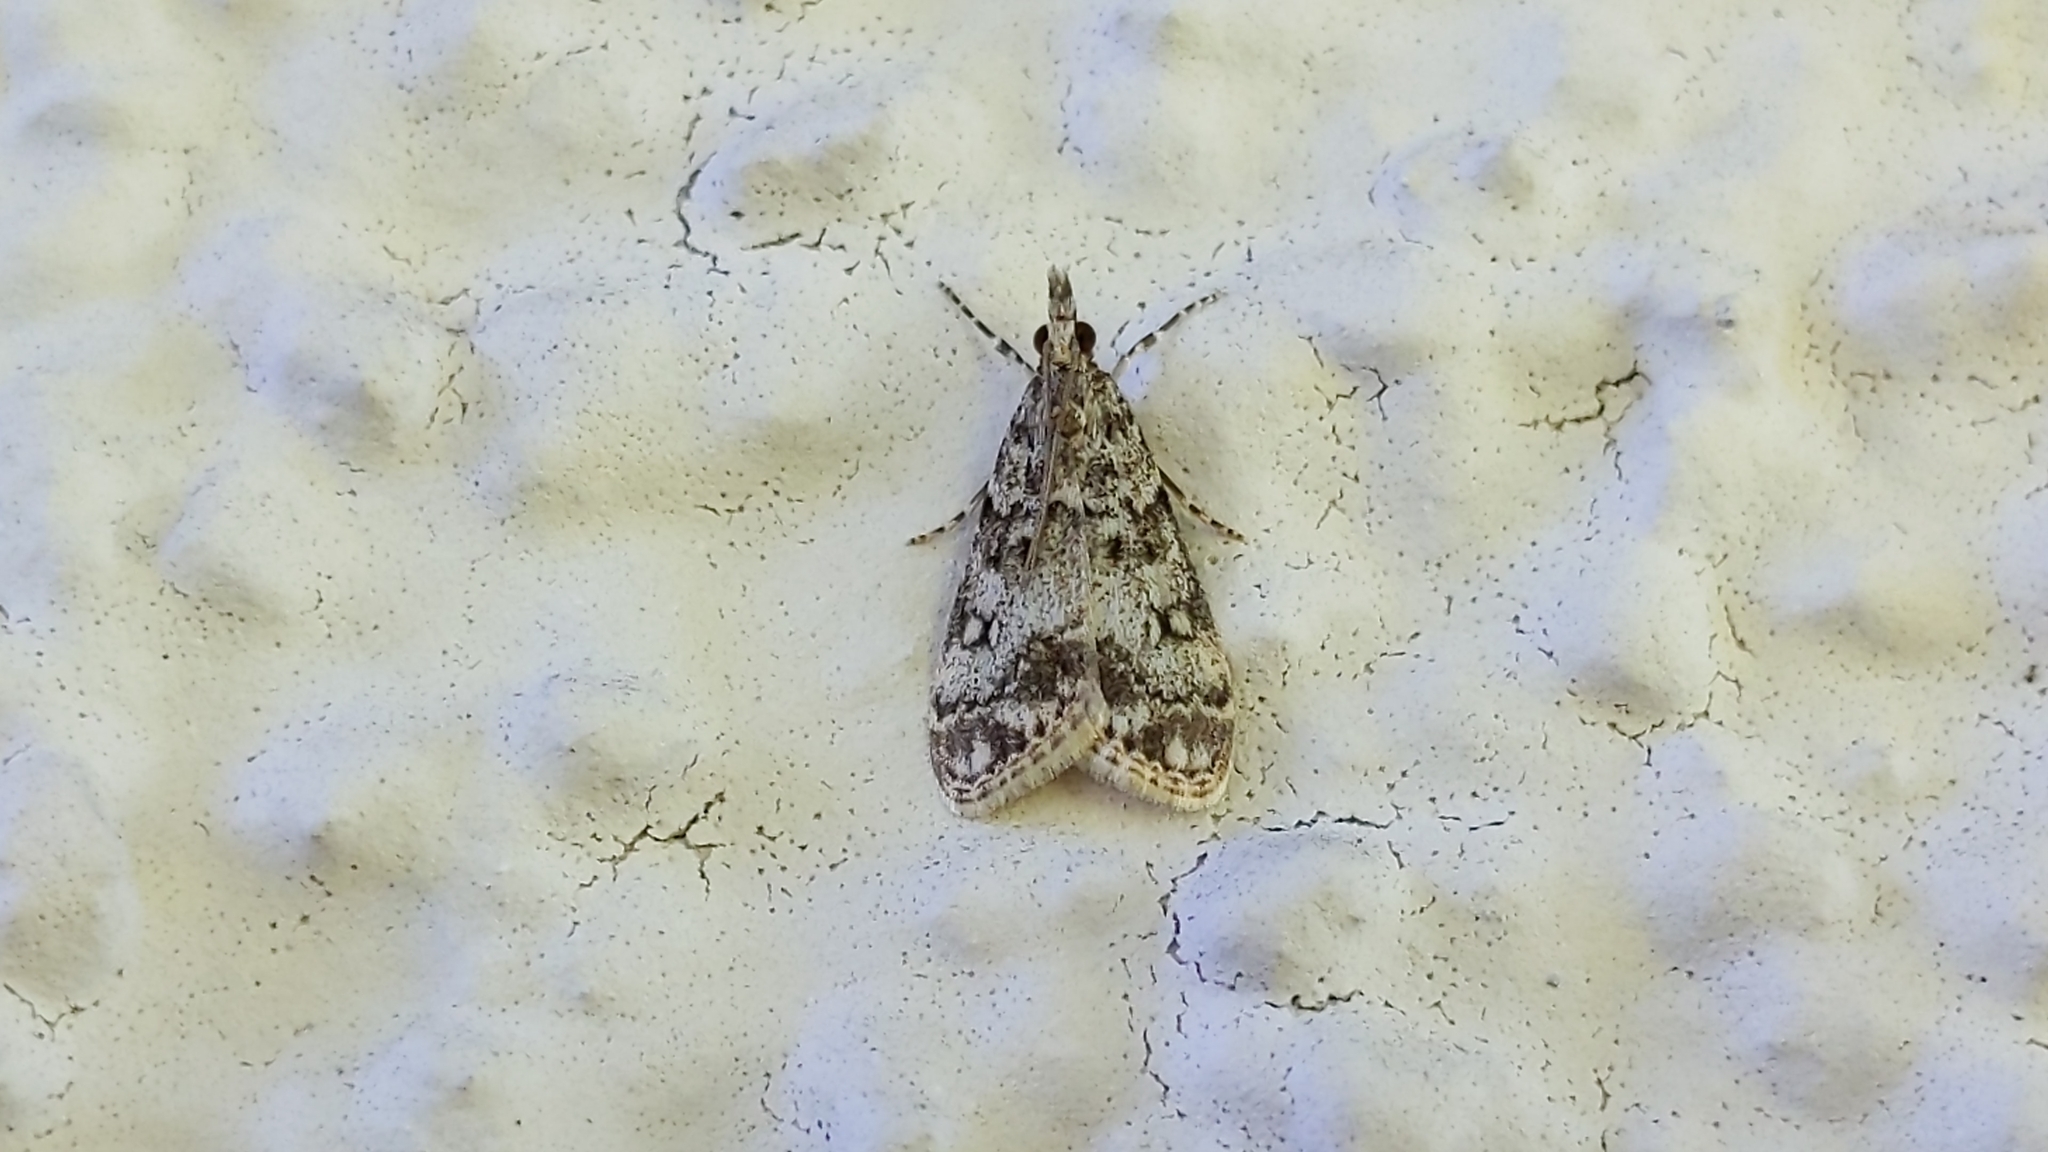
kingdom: Animalia
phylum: Arthropoda
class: Insecta
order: Lepidoptera
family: Crambidae
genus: Eudonia
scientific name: Eudonia lacustrata
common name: Little grey
